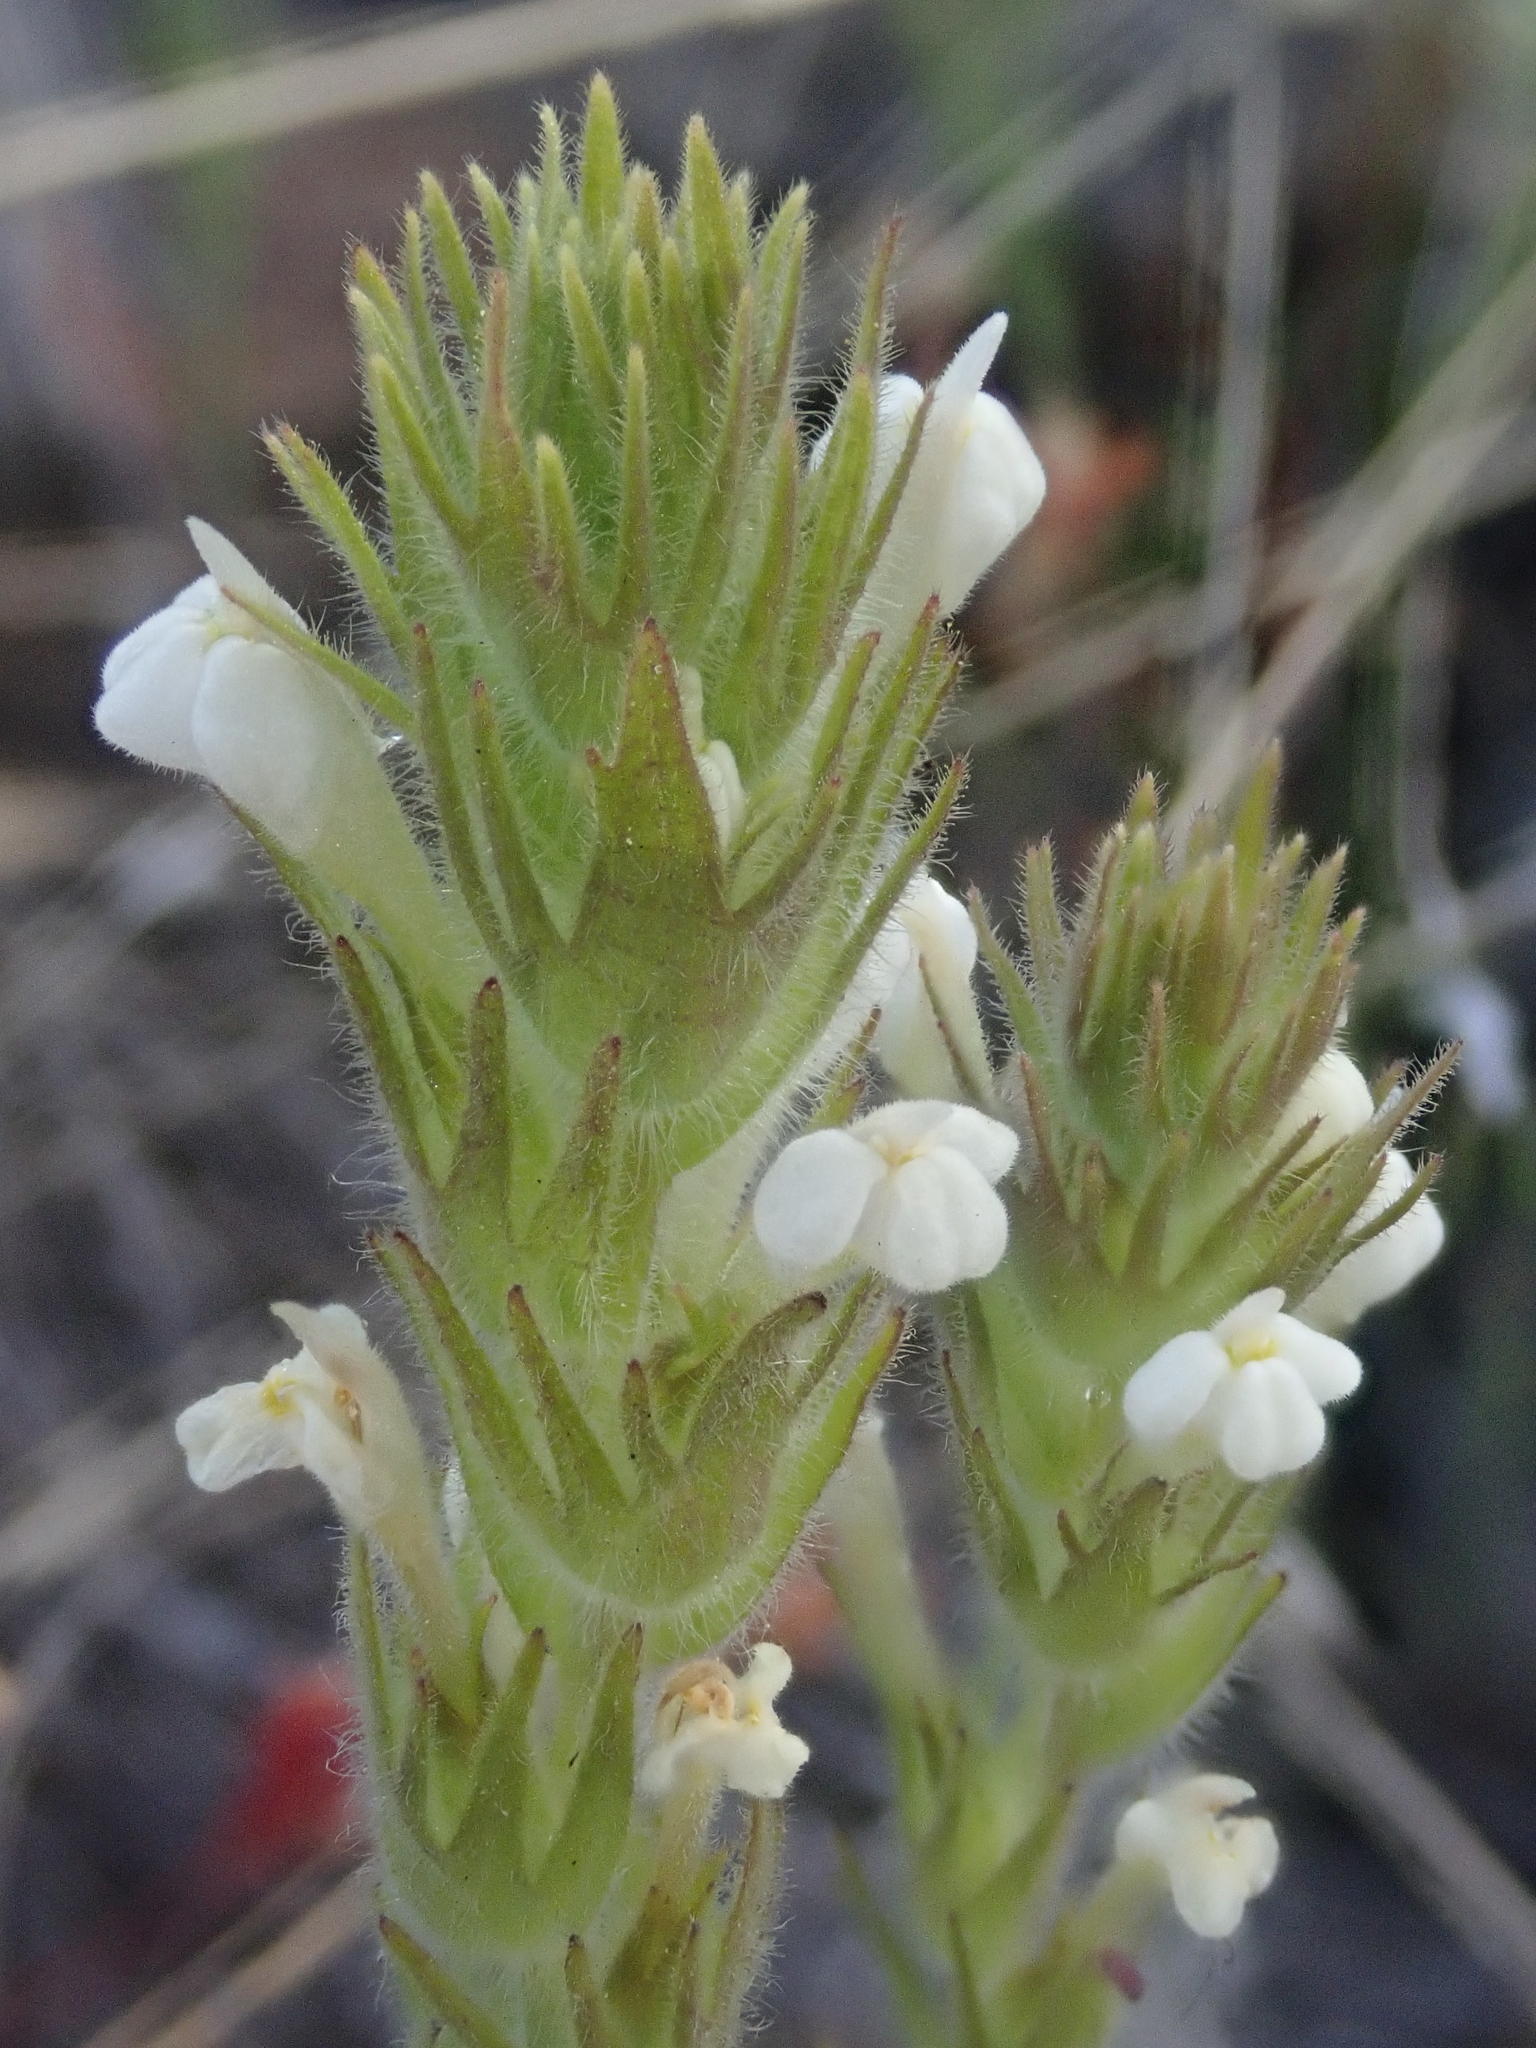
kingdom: Plantae
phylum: Tracheophyta
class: Magnoliopsida
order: Lamiales
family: Orobanchaceae
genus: Castilleja
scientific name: Castilleja tenuis
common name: Hairy indian paintbrush
